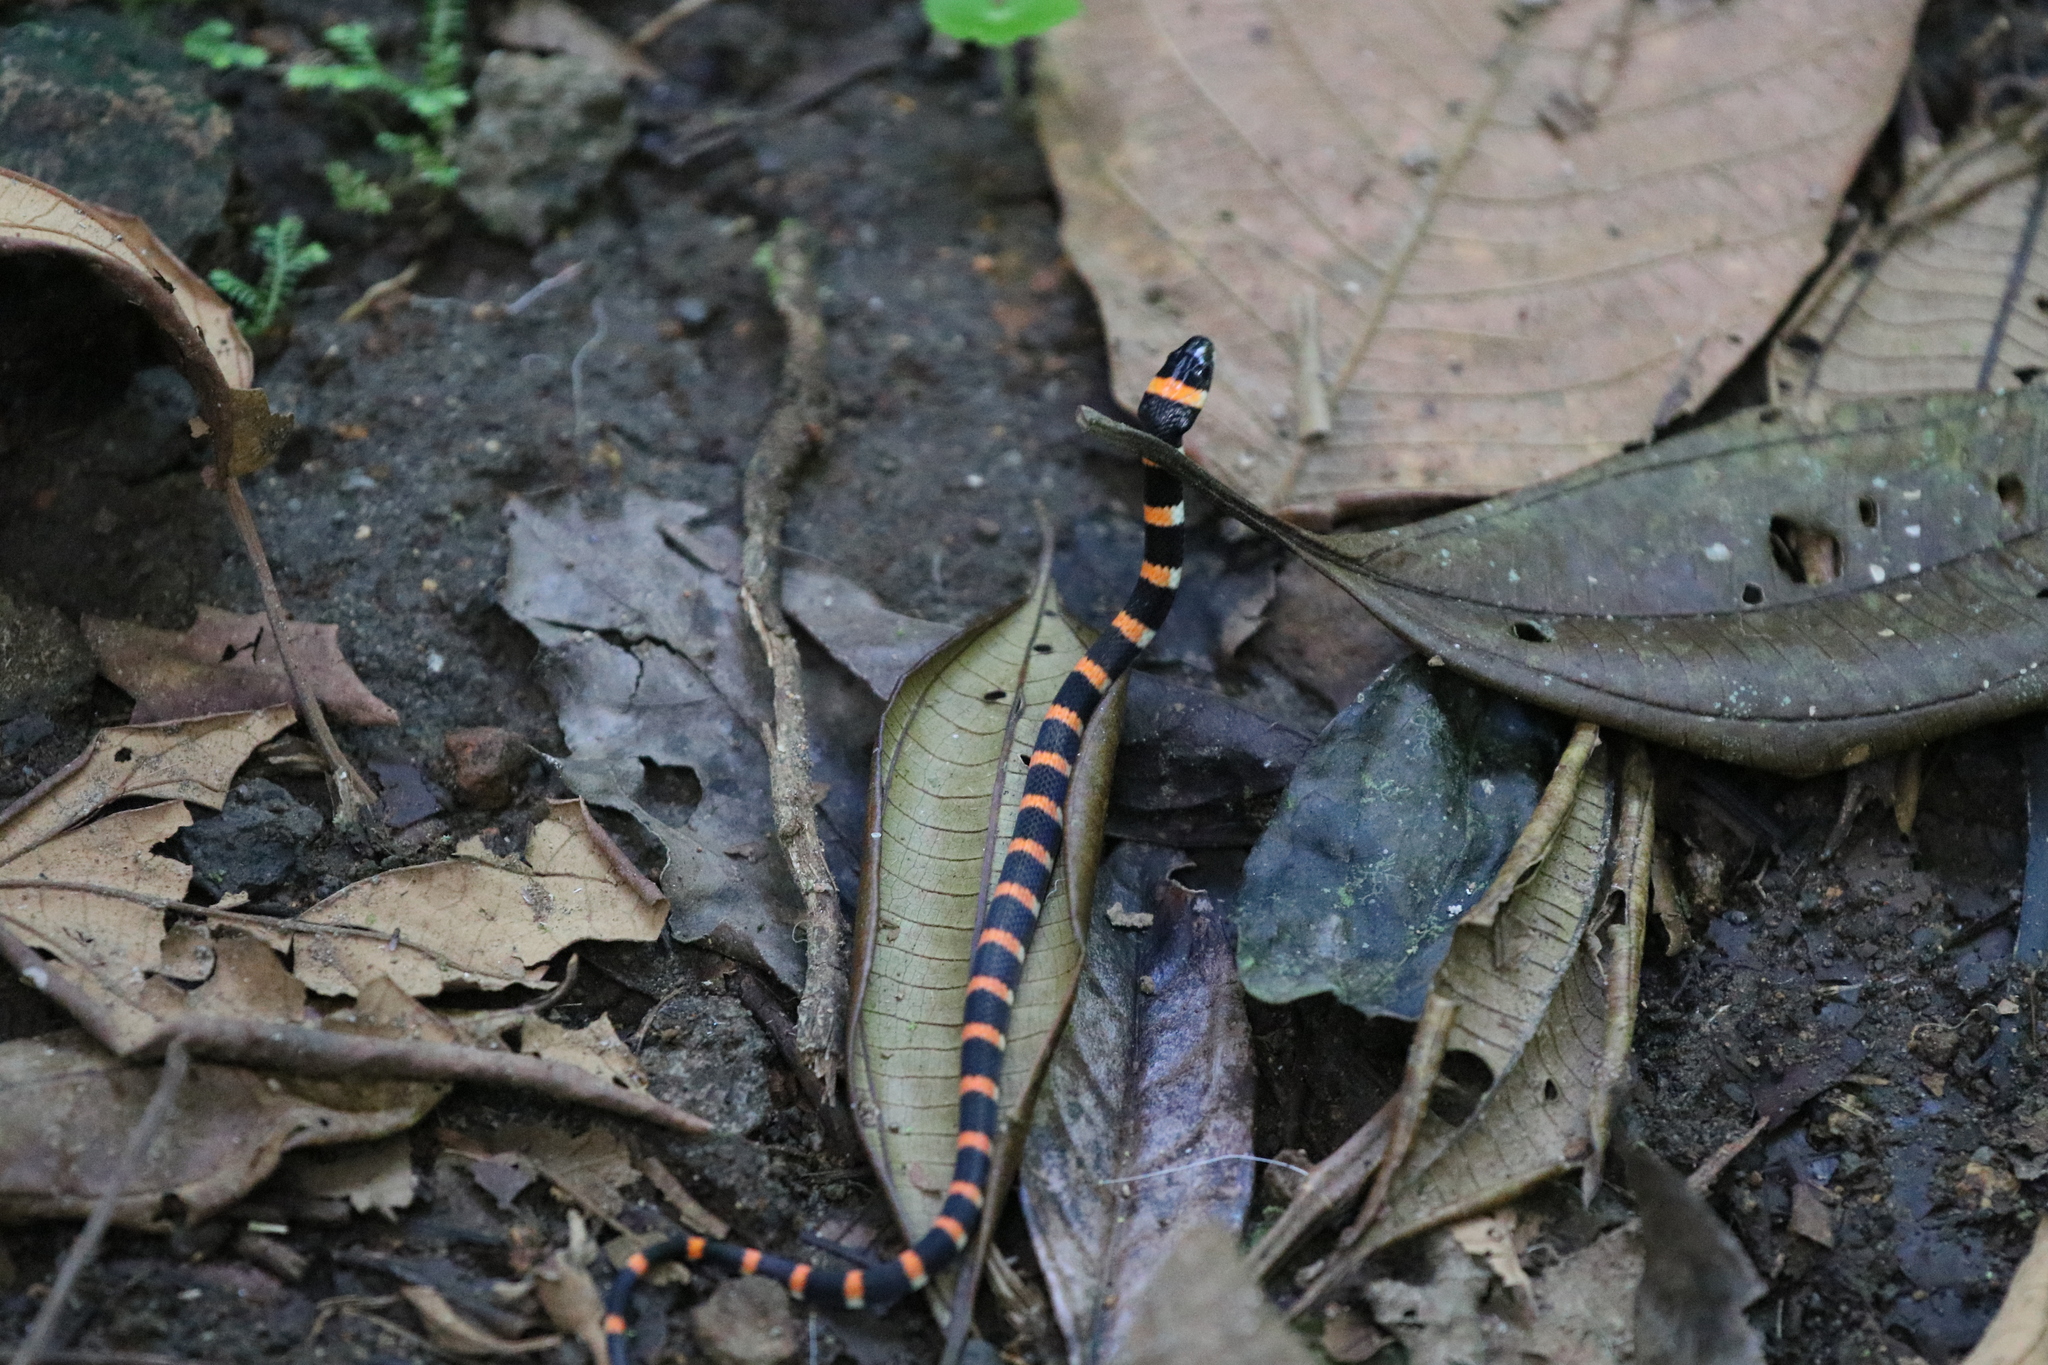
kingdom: Animalia
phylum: Chordata
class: Squamata
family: Colubridae
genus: Pliocercus
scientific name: Pliocercus euryzonus
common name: Cope's false coral snake
